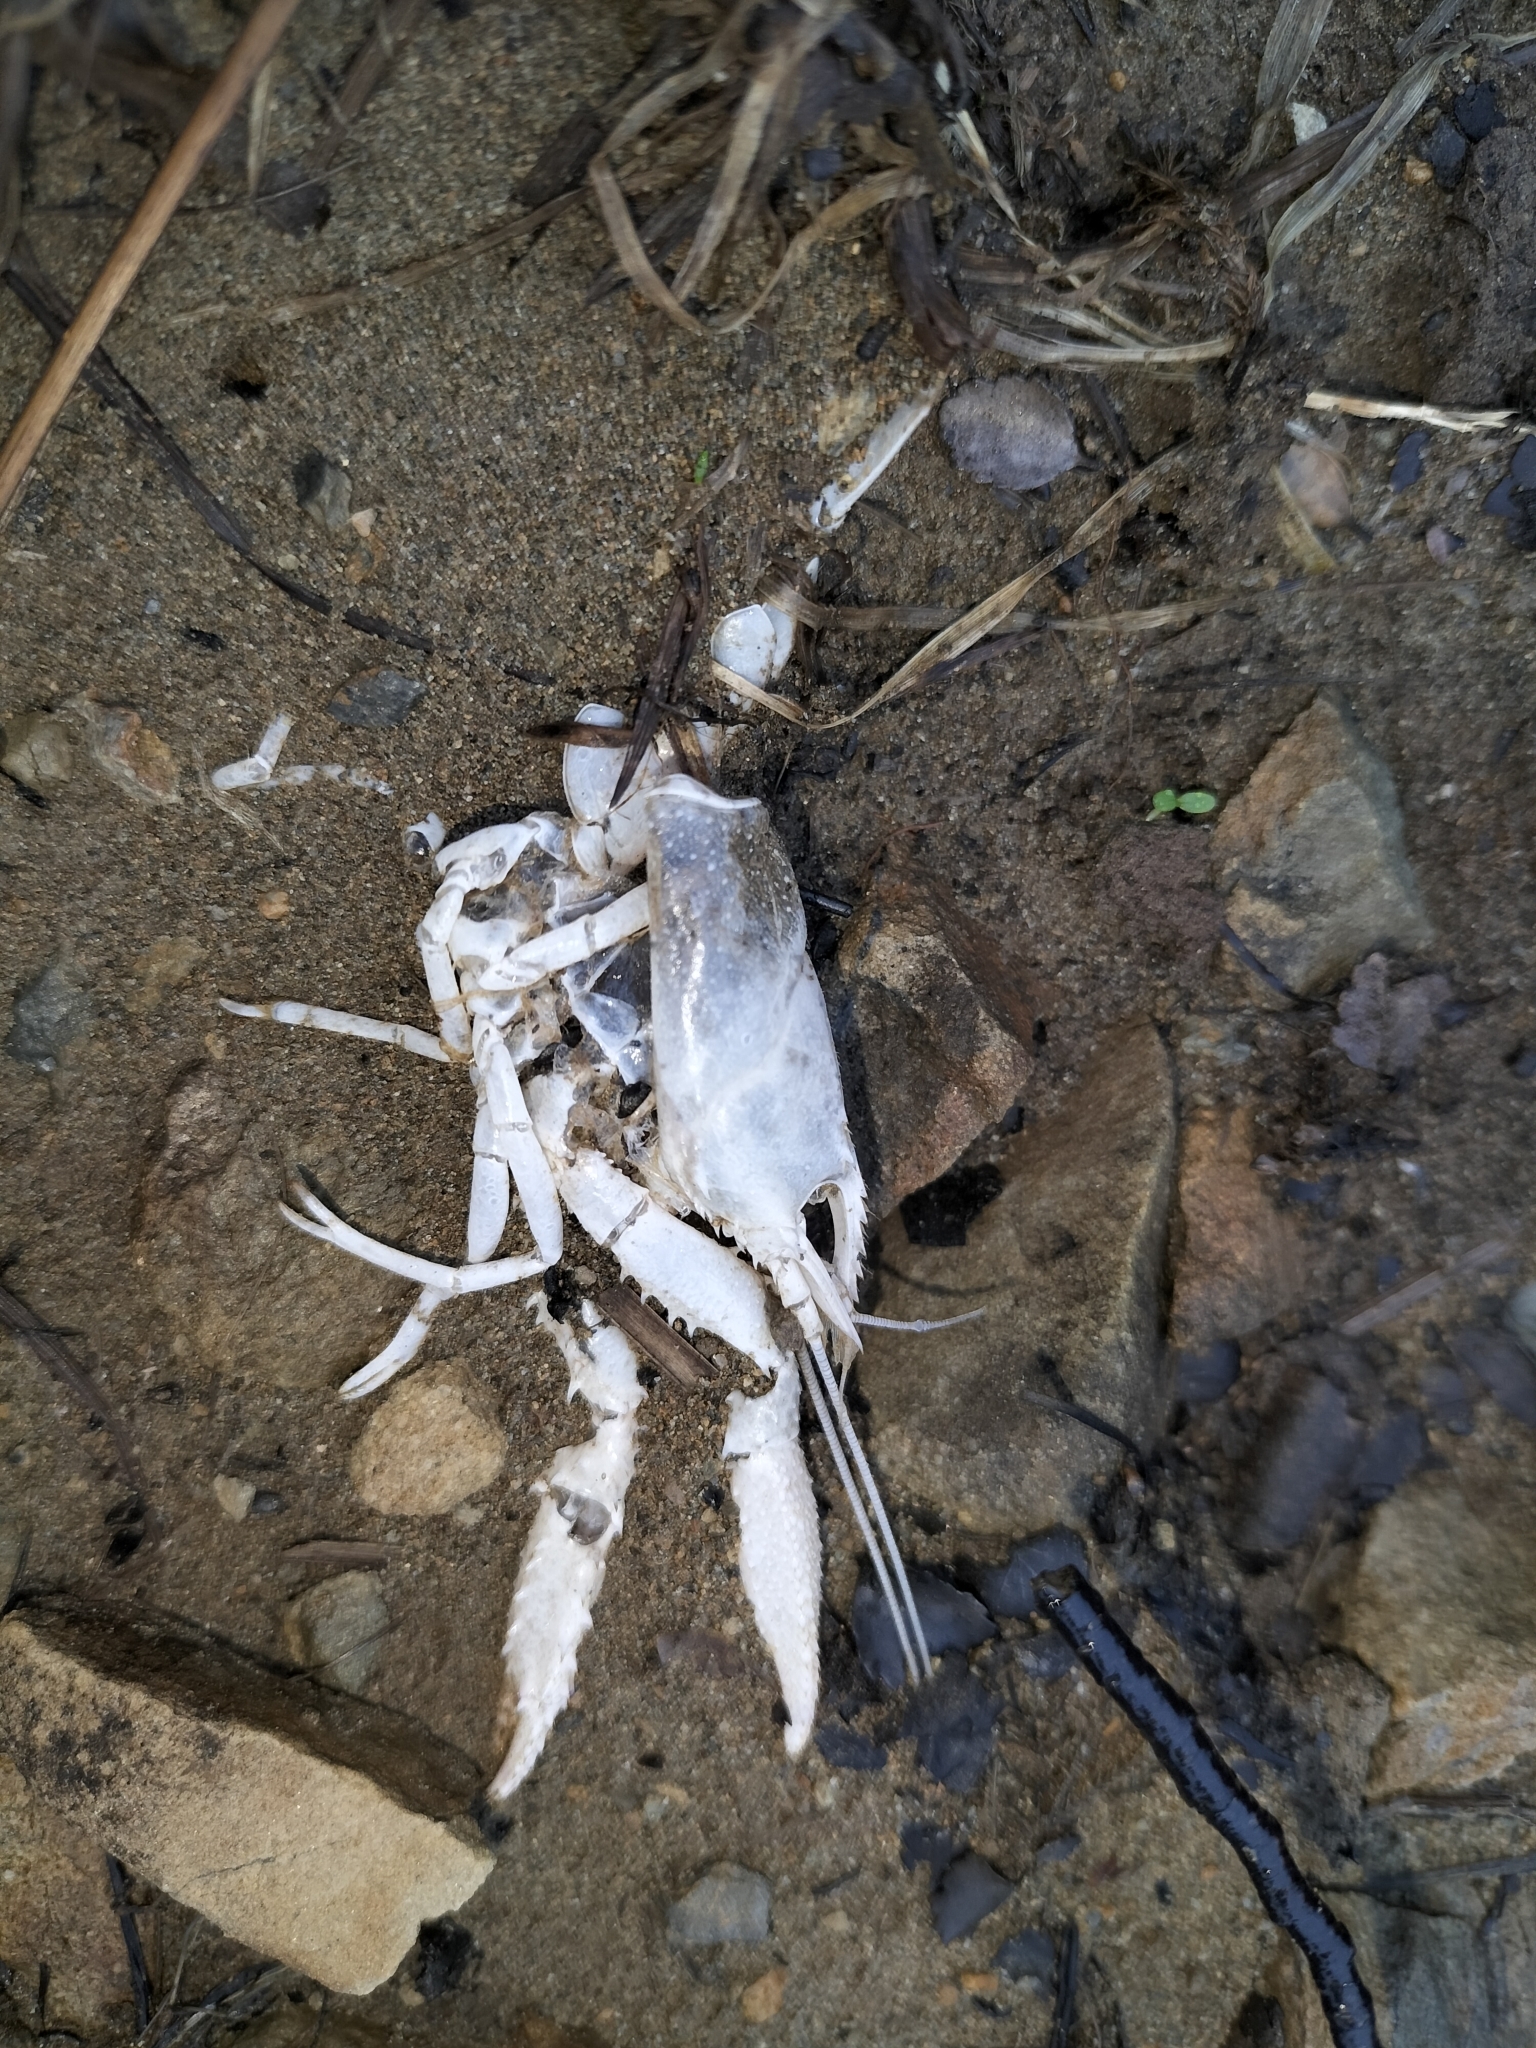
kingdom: Animalia
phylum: Arthropoda
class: Malacostraca
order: Decapoda
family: Parastacidae
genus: Paranephrops
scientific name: Paranephrops planifrons
